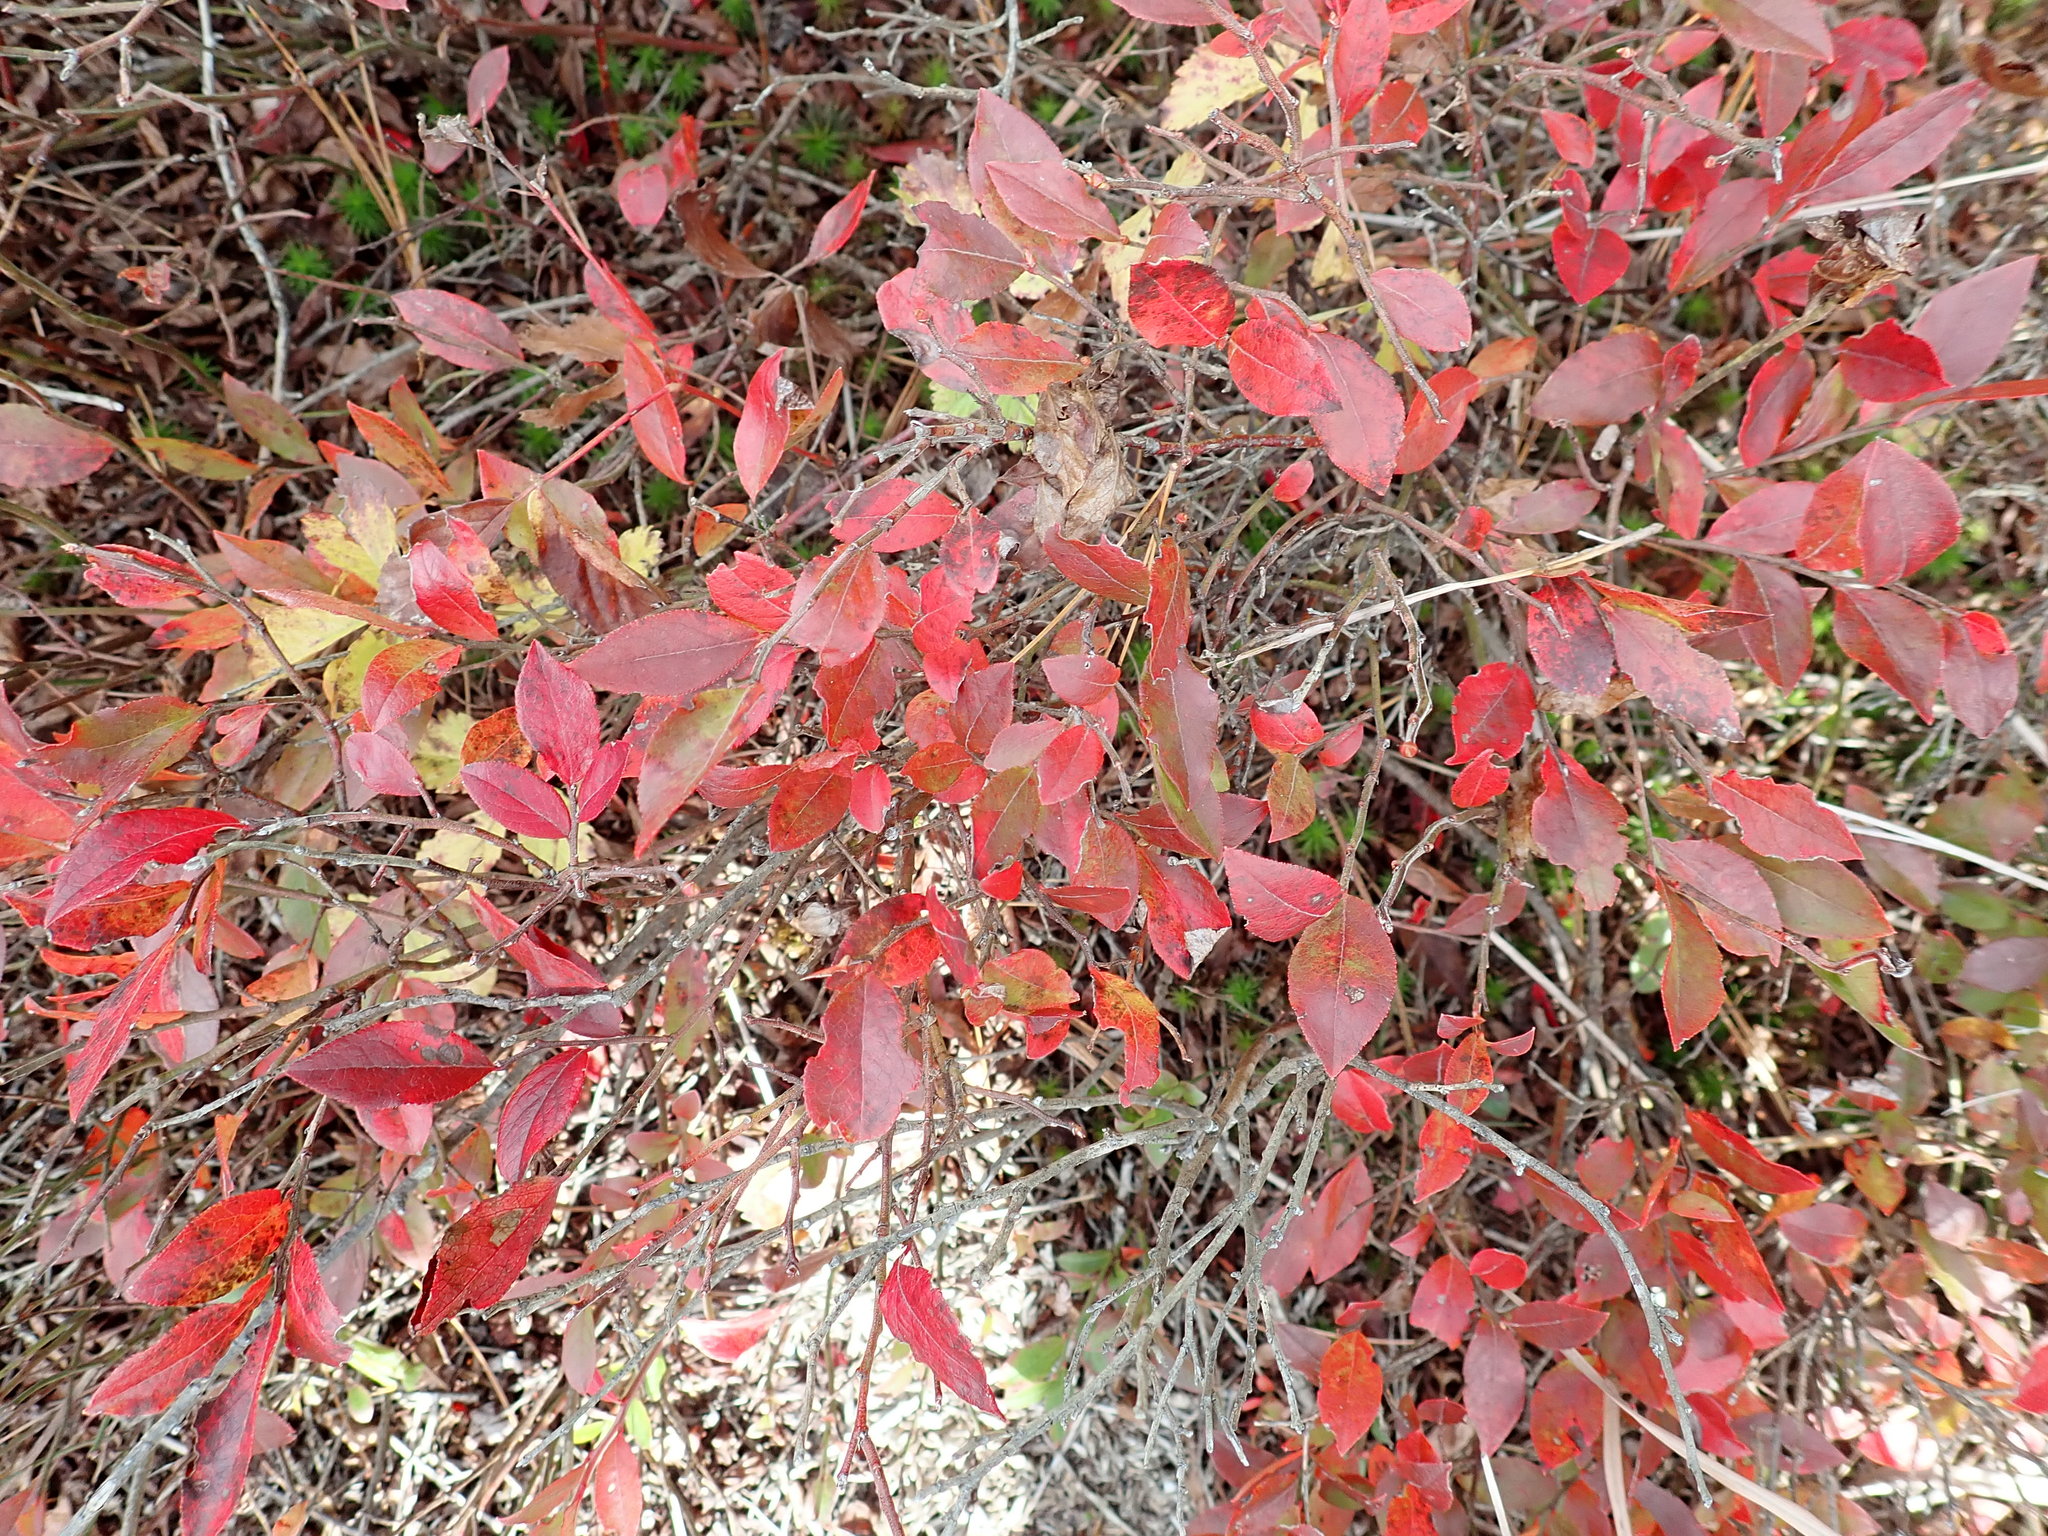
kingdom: Plantae
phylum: Tracheophyta
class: Magnoliopsida
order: Ericales
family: Ericaceae
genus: Vaccinium
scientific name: Vaccinium angustifolium
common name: Early lowbush blueberry
